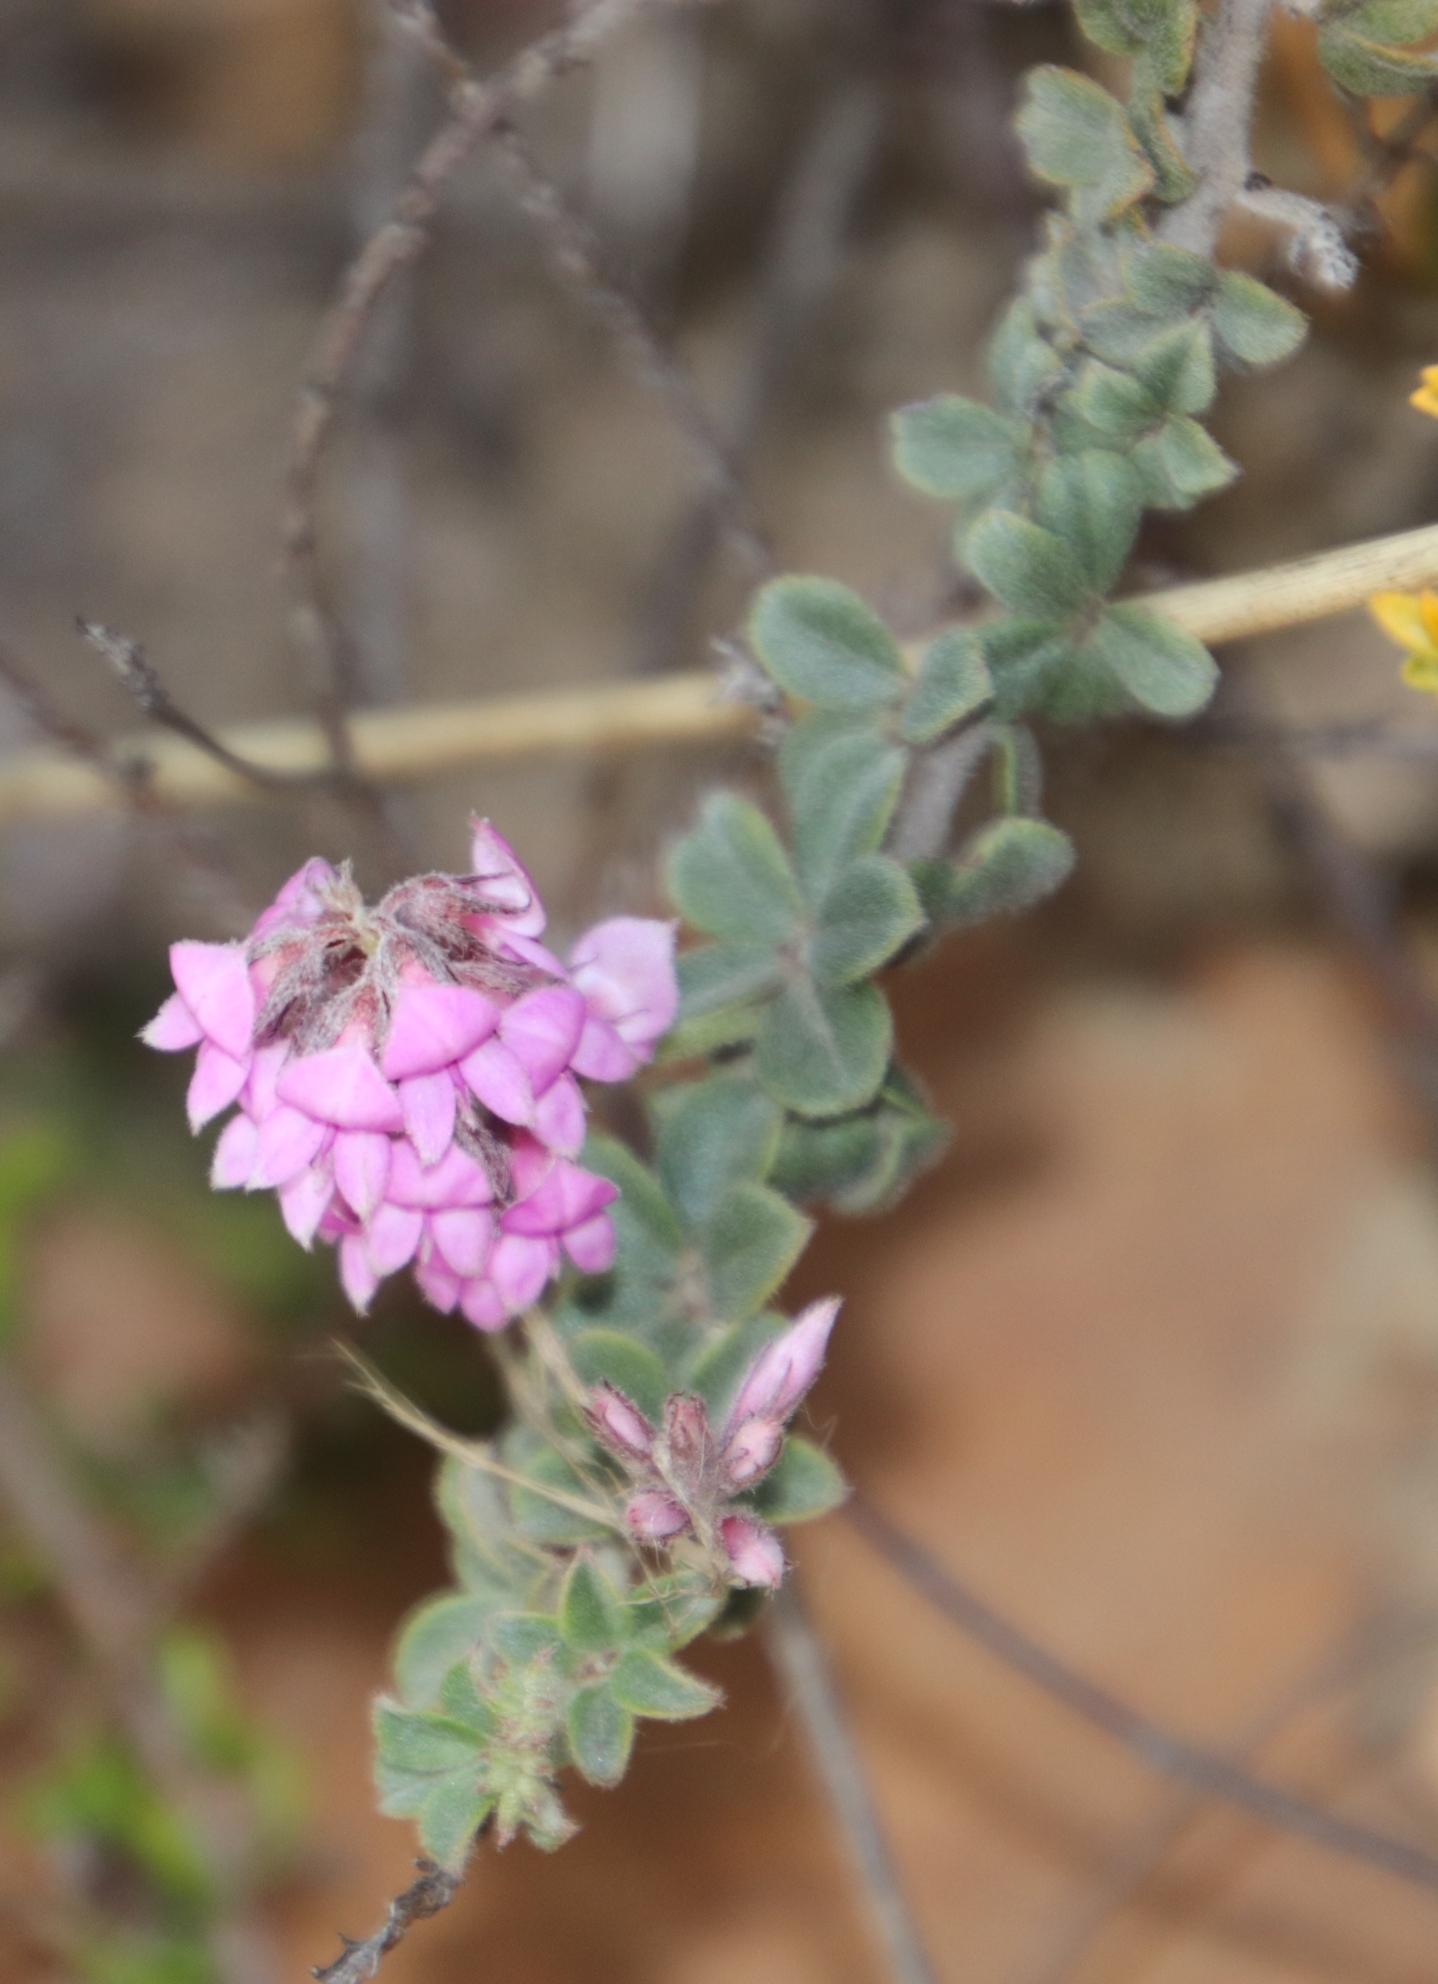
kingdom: Plantae
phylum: Tracheophyta
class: Magnoliopsida
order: Fabales
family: Fabaceae
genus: Indigofera
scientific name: Indigofera mauritanica
